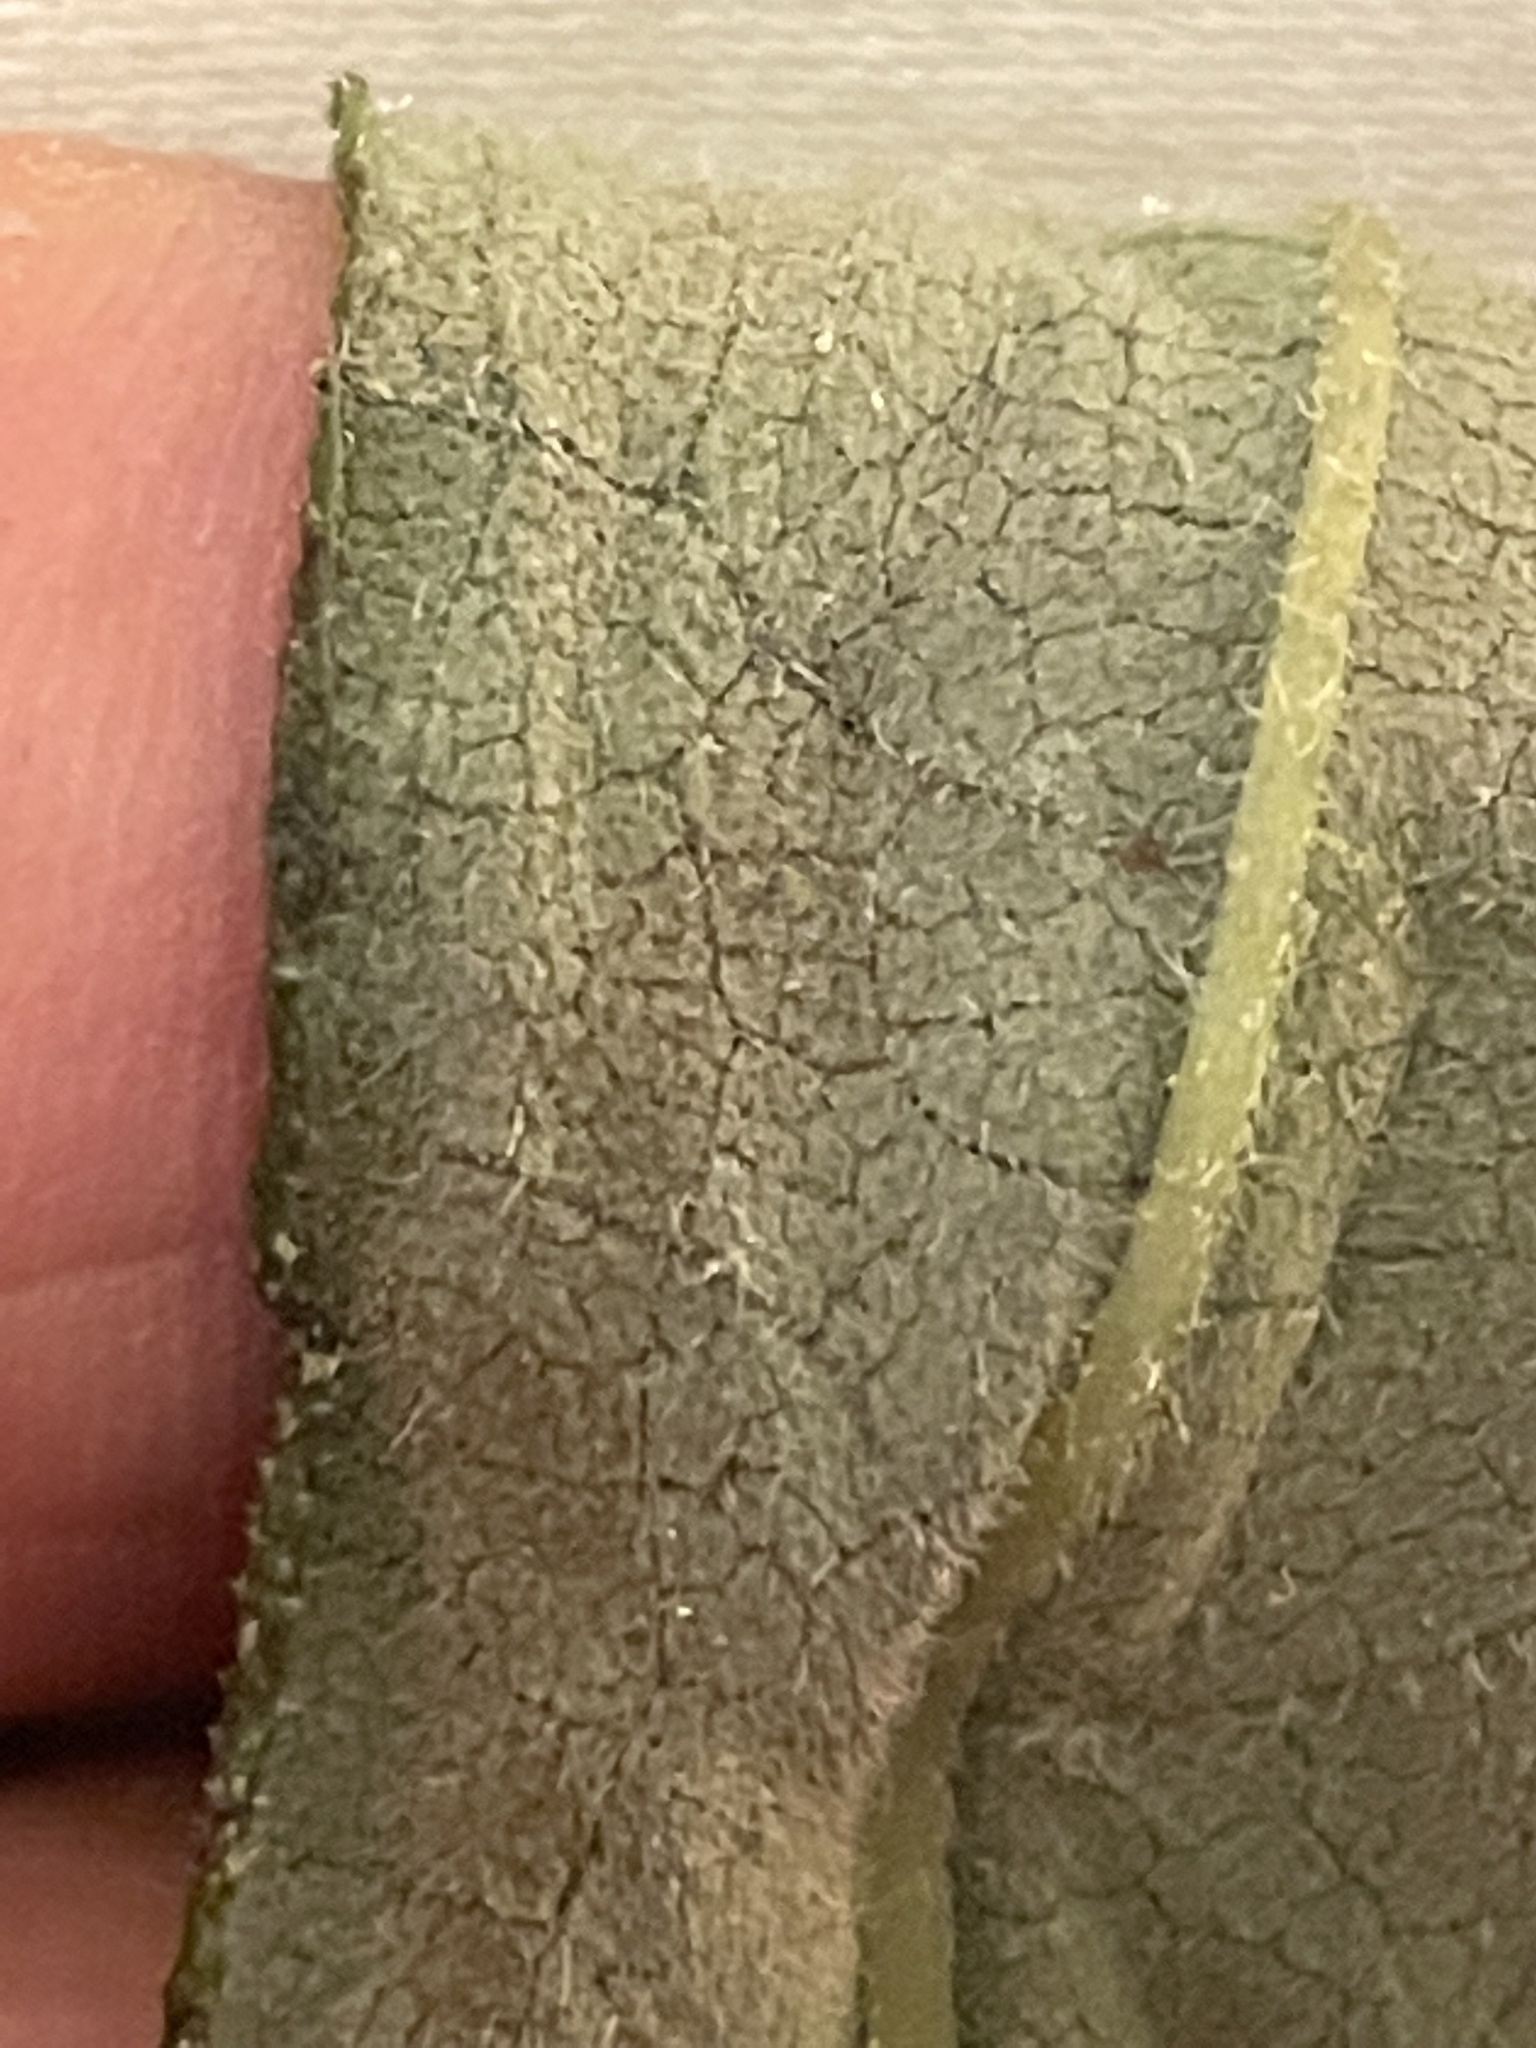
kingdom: Plantae
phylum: Tracheophyta
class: Magnoliopsida
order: Asterales
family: Asteraceae
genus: Helianthus
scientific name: Helianthus resinosus
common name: Resin-dot sunflower
